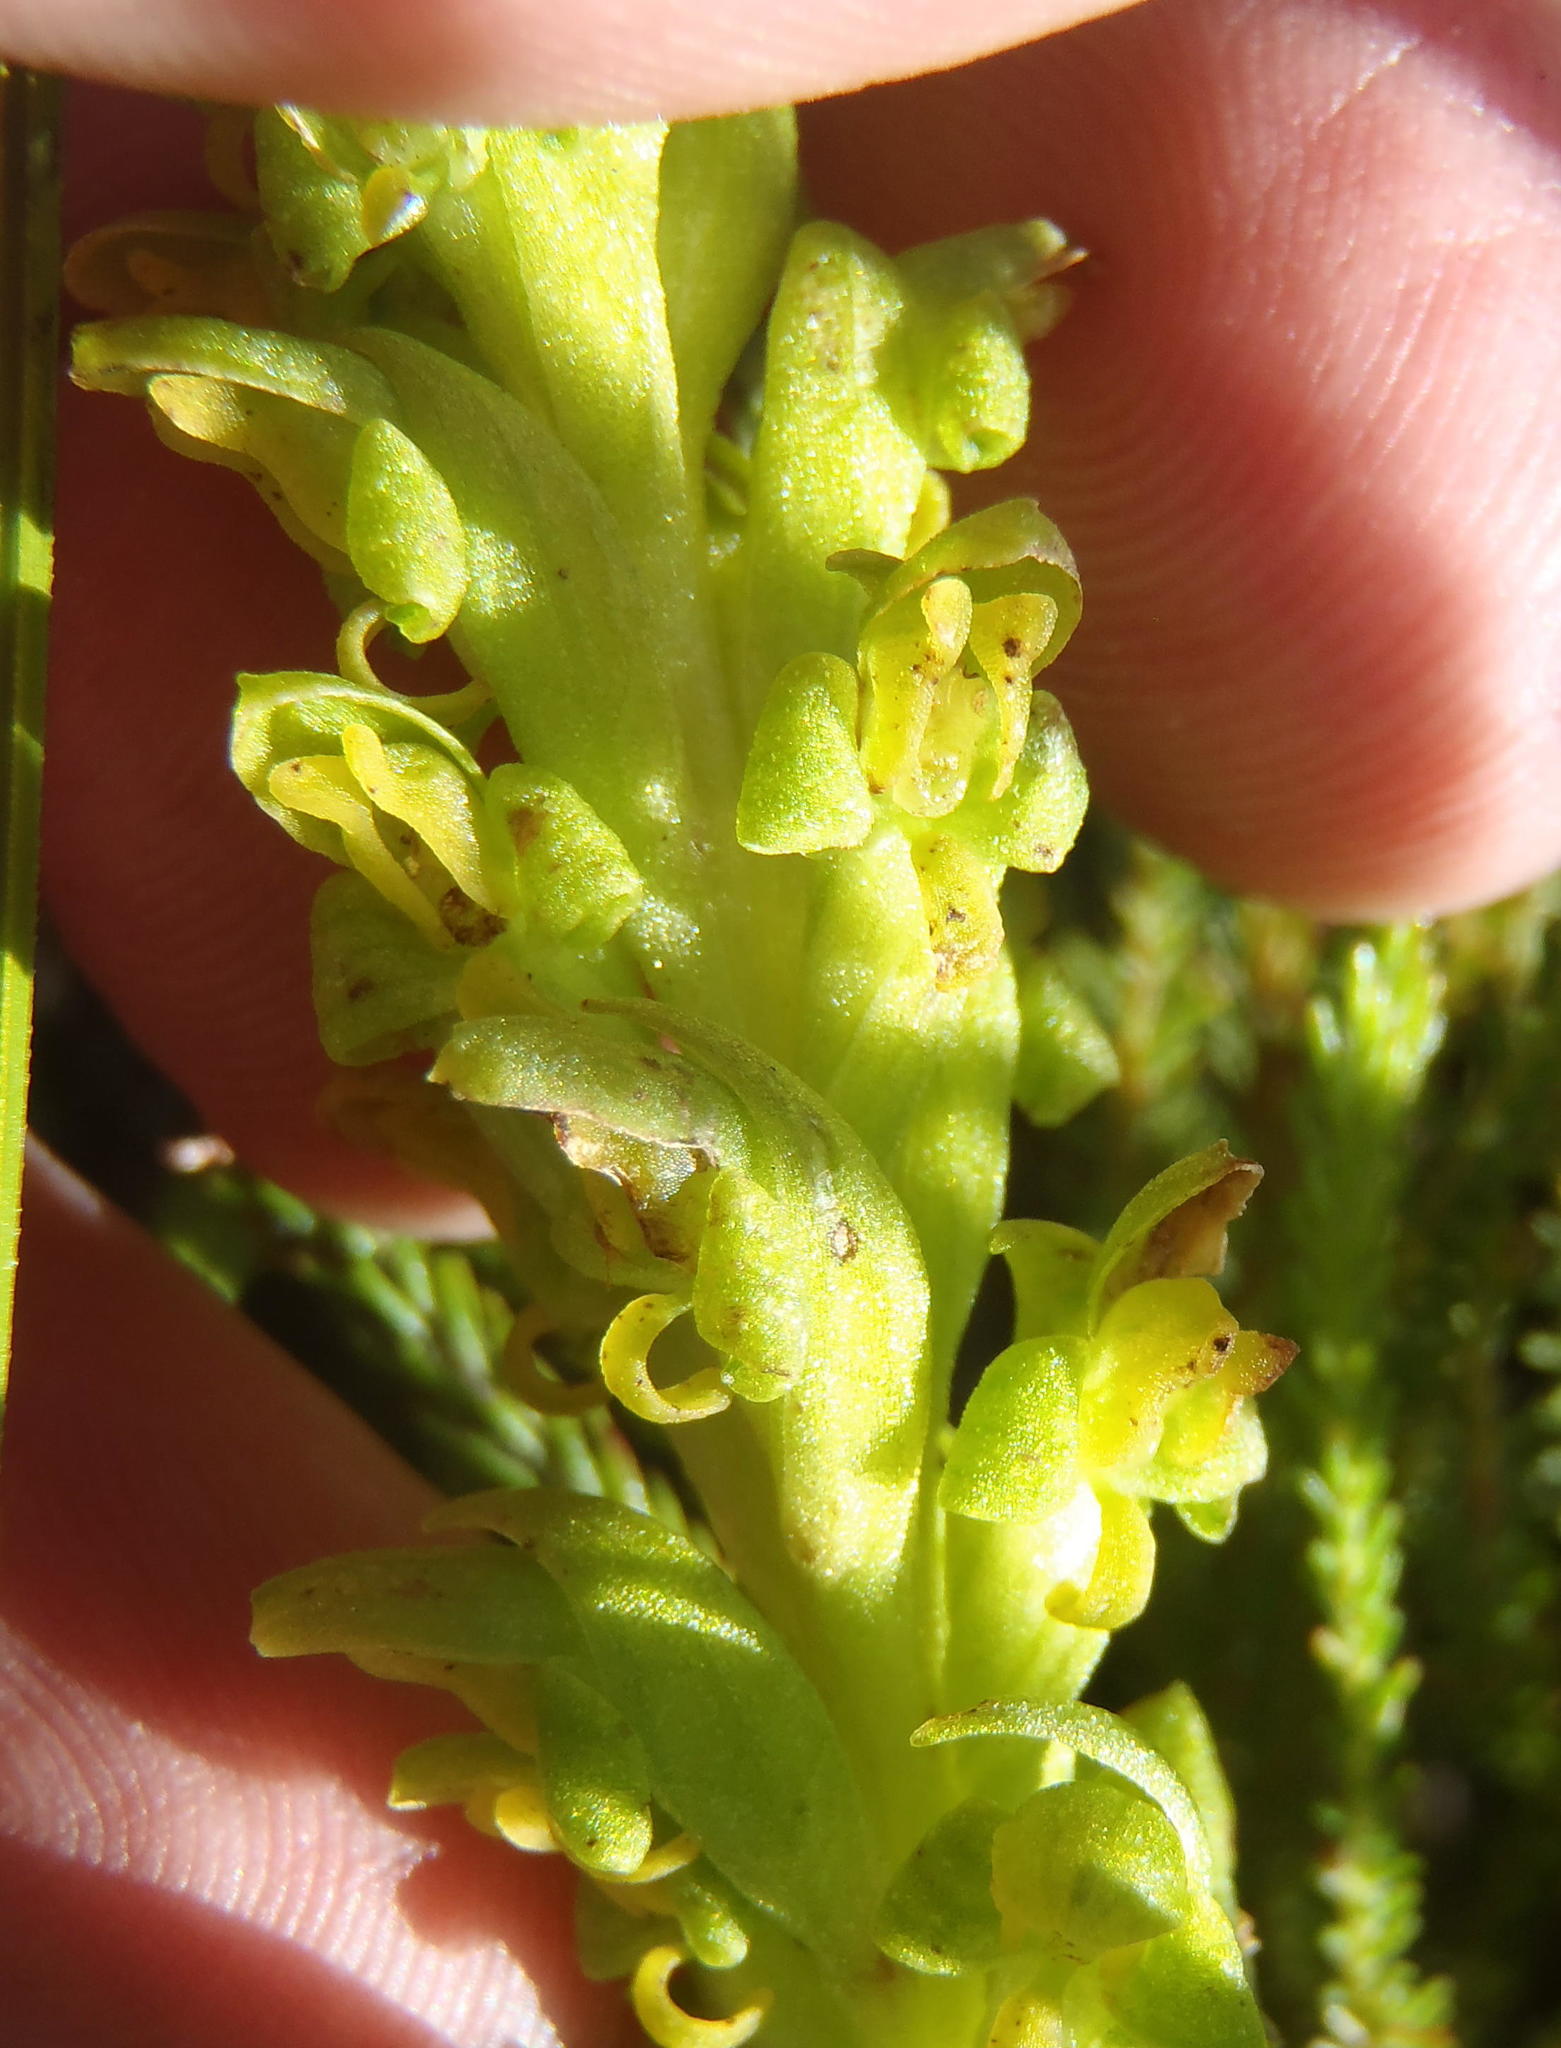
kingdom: Plantae
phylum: Tracheophyta
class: Liliopsida
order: Asparagales
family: Orchidaceae
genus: Disa
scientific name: Disa cylindrica
